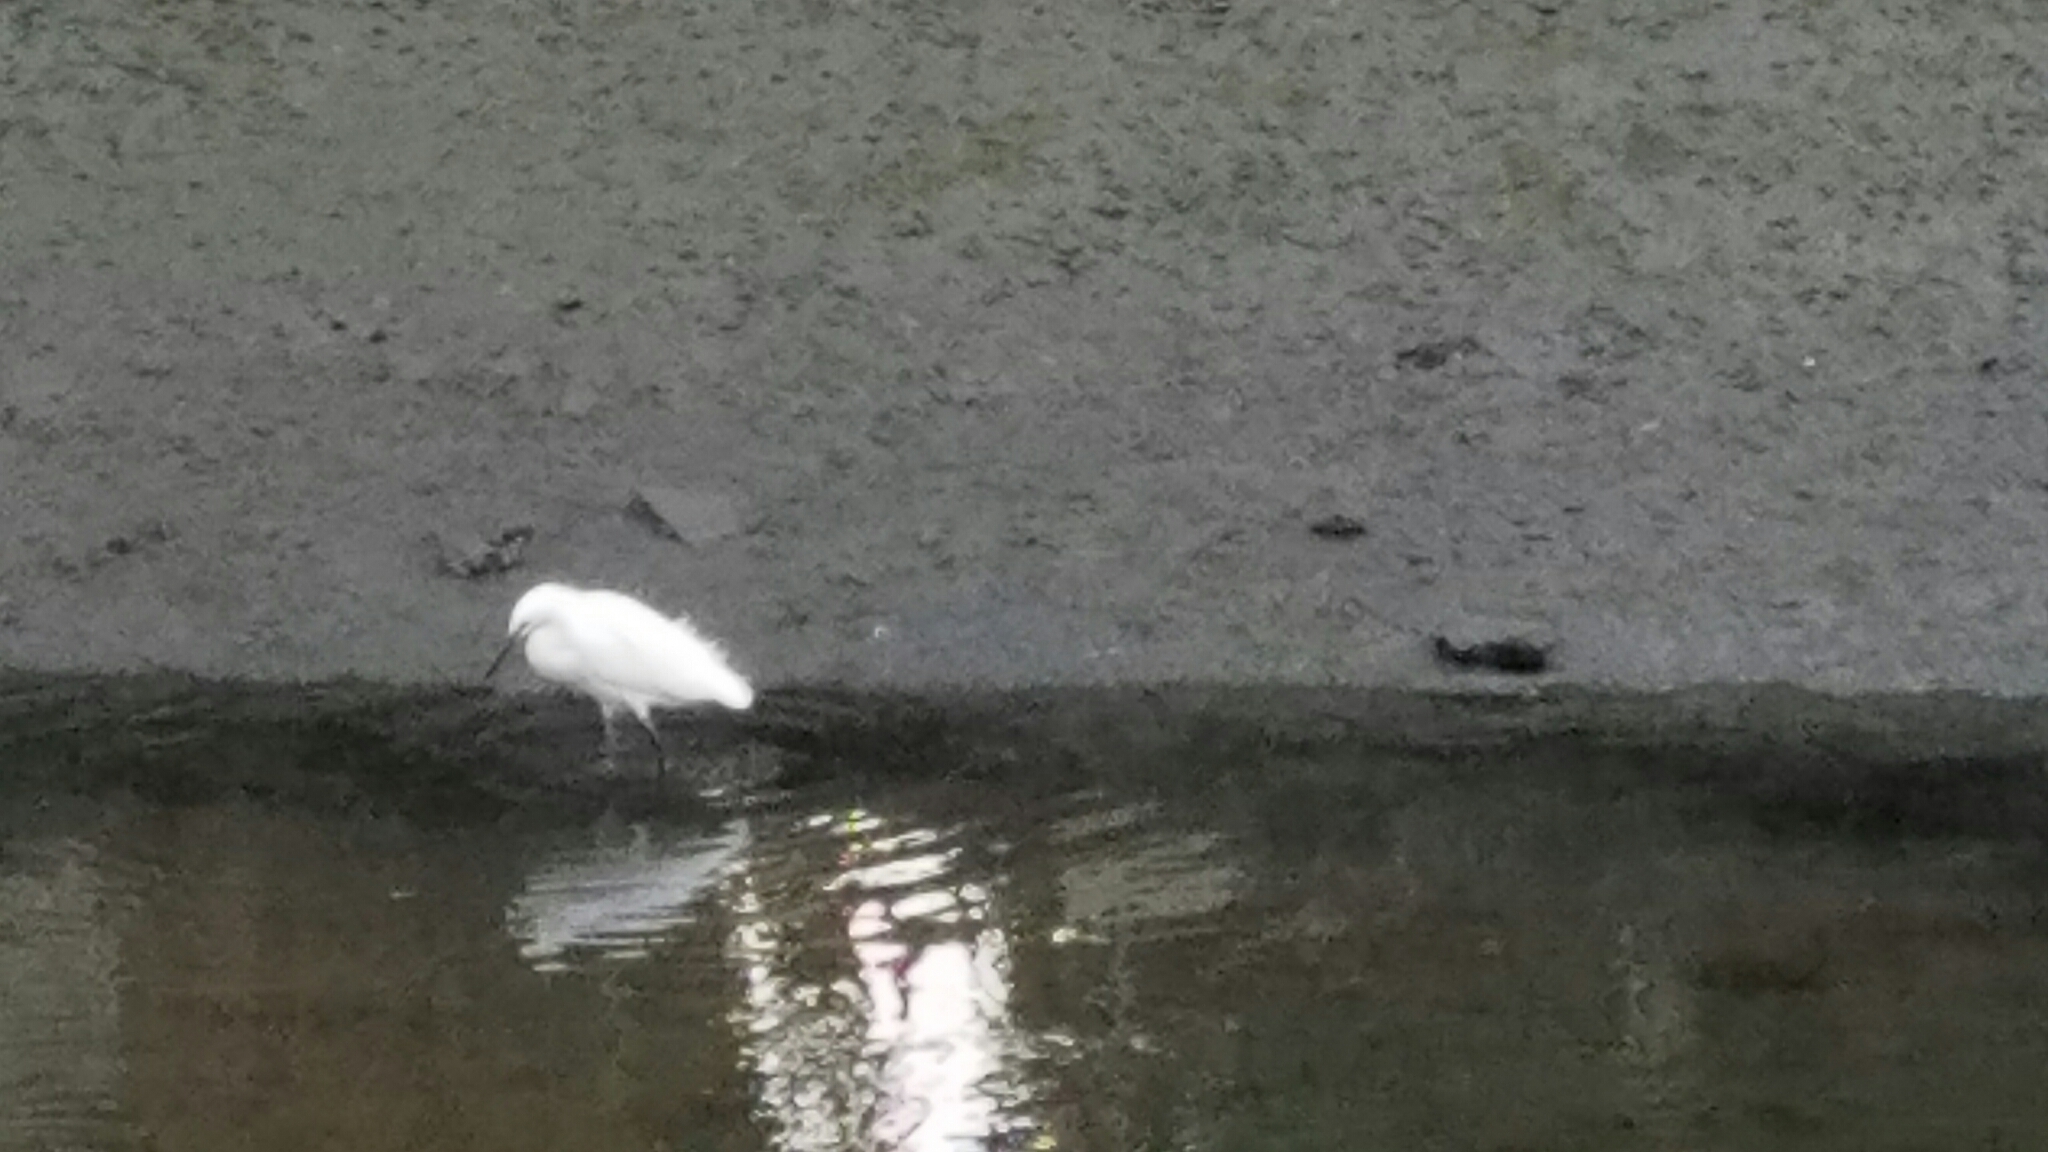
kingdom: Animalia
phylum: Chordata
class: Aves
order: Pelecaniformes
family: Ardeidae
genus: Egretta
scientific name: Egretta thula
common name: Snowy egret
